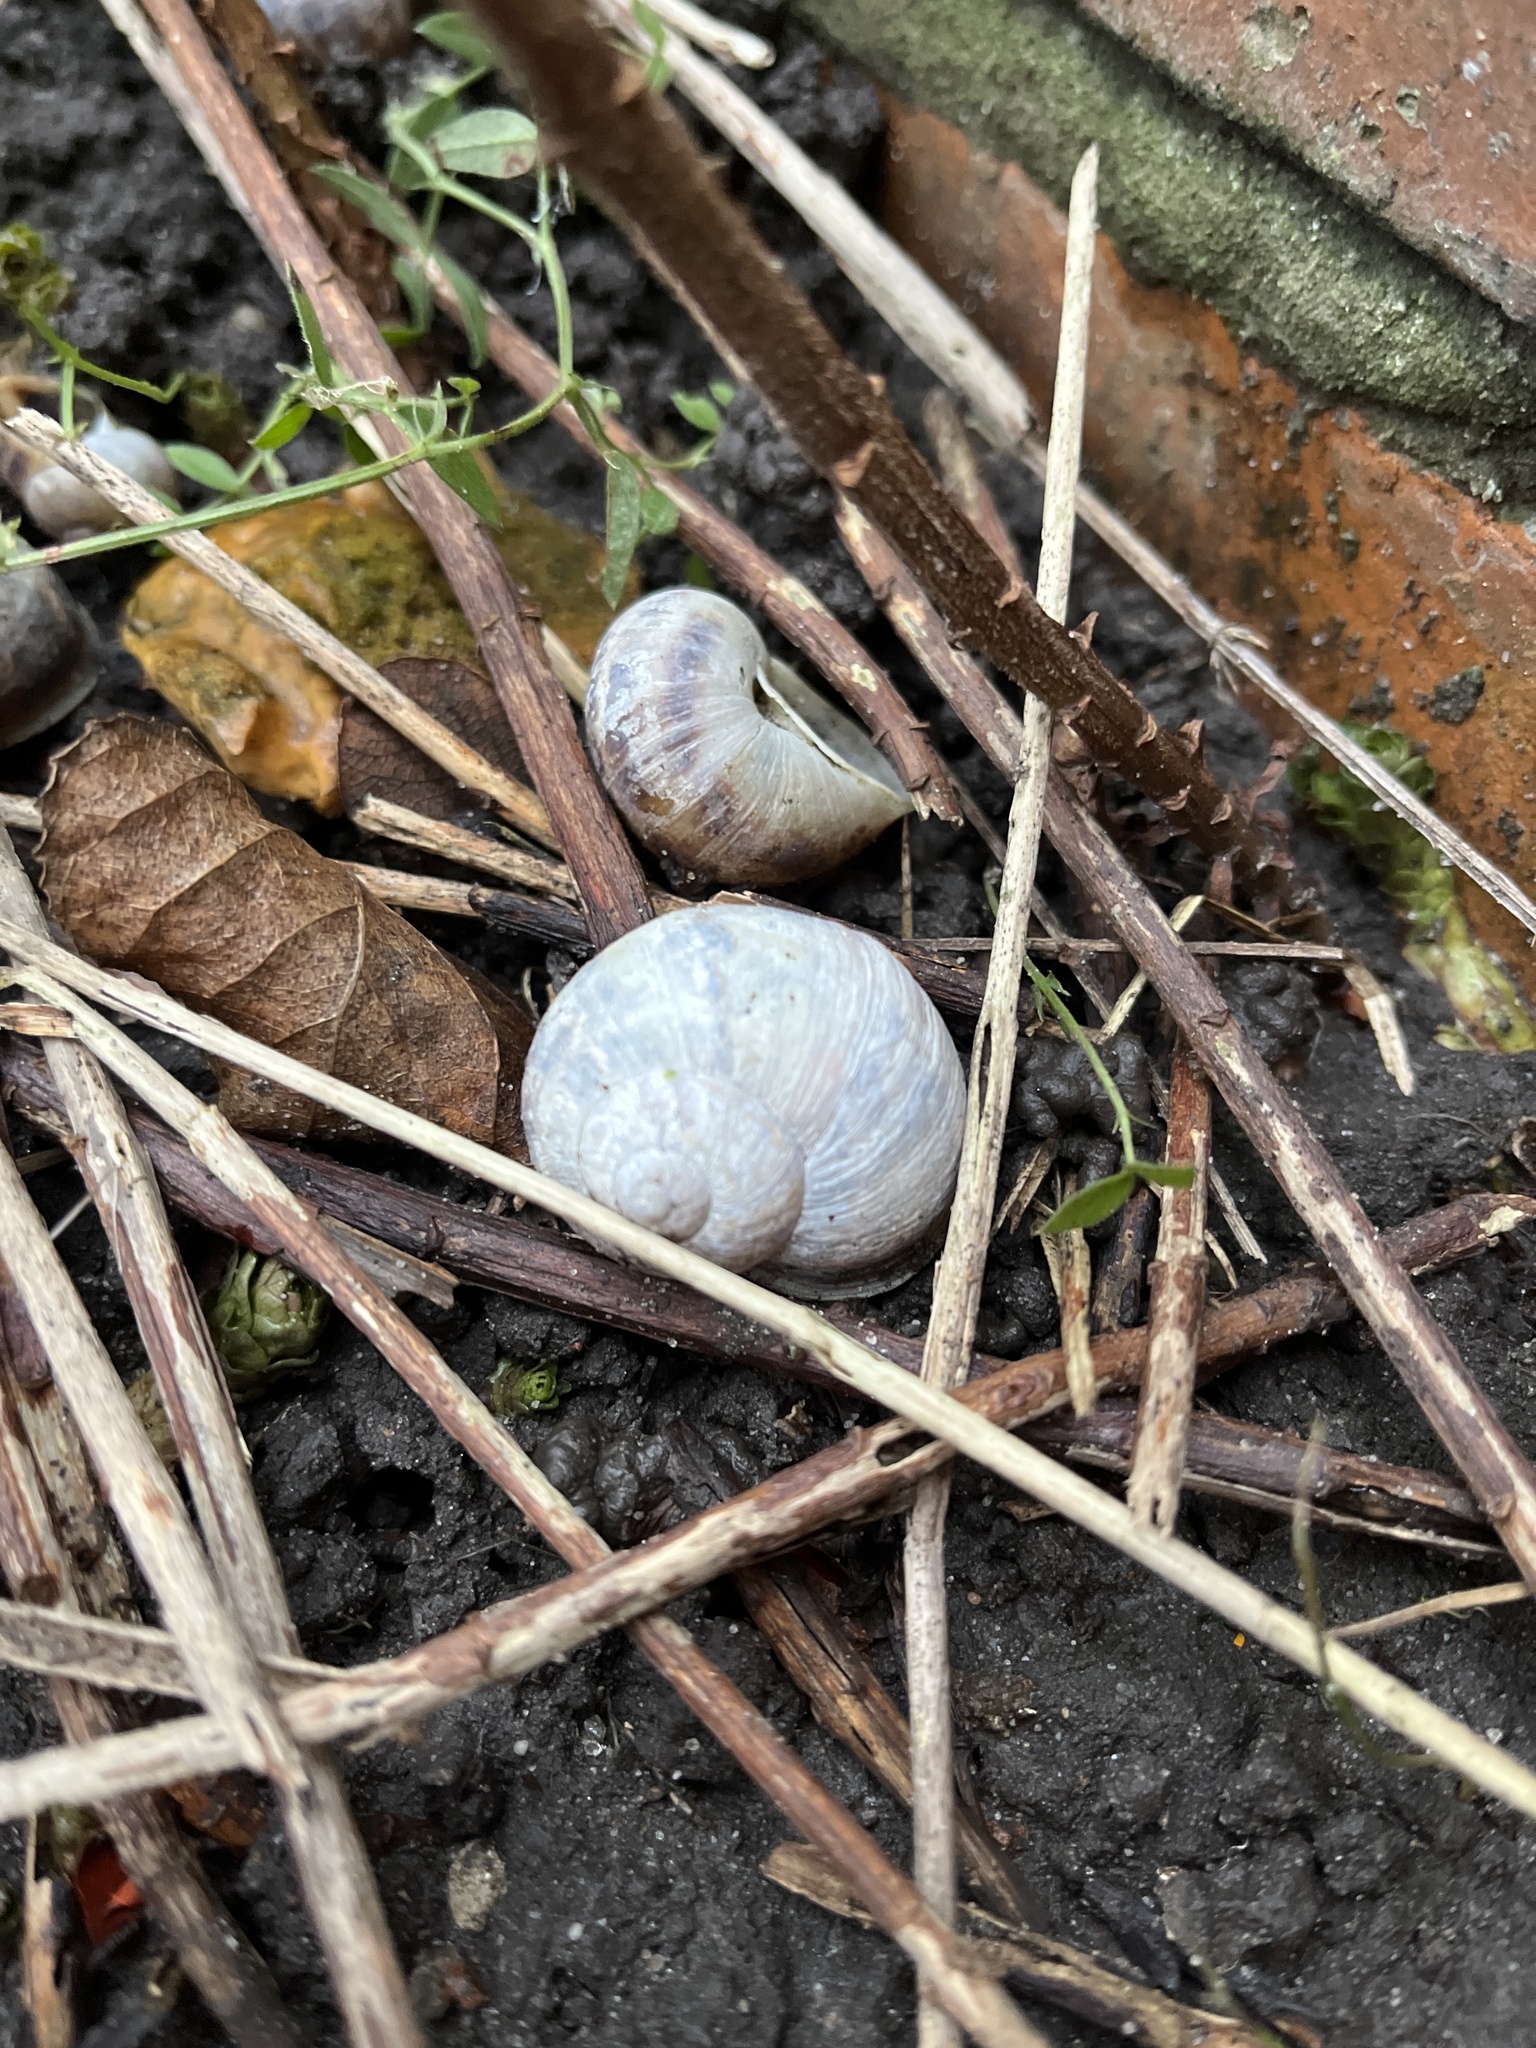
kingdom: Animalia
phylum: Mollusca
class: Gastropoda
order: Stylommatophora
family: Helicidae
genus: Cornu
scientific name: Cornu aspersum
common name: Brown garden snail
